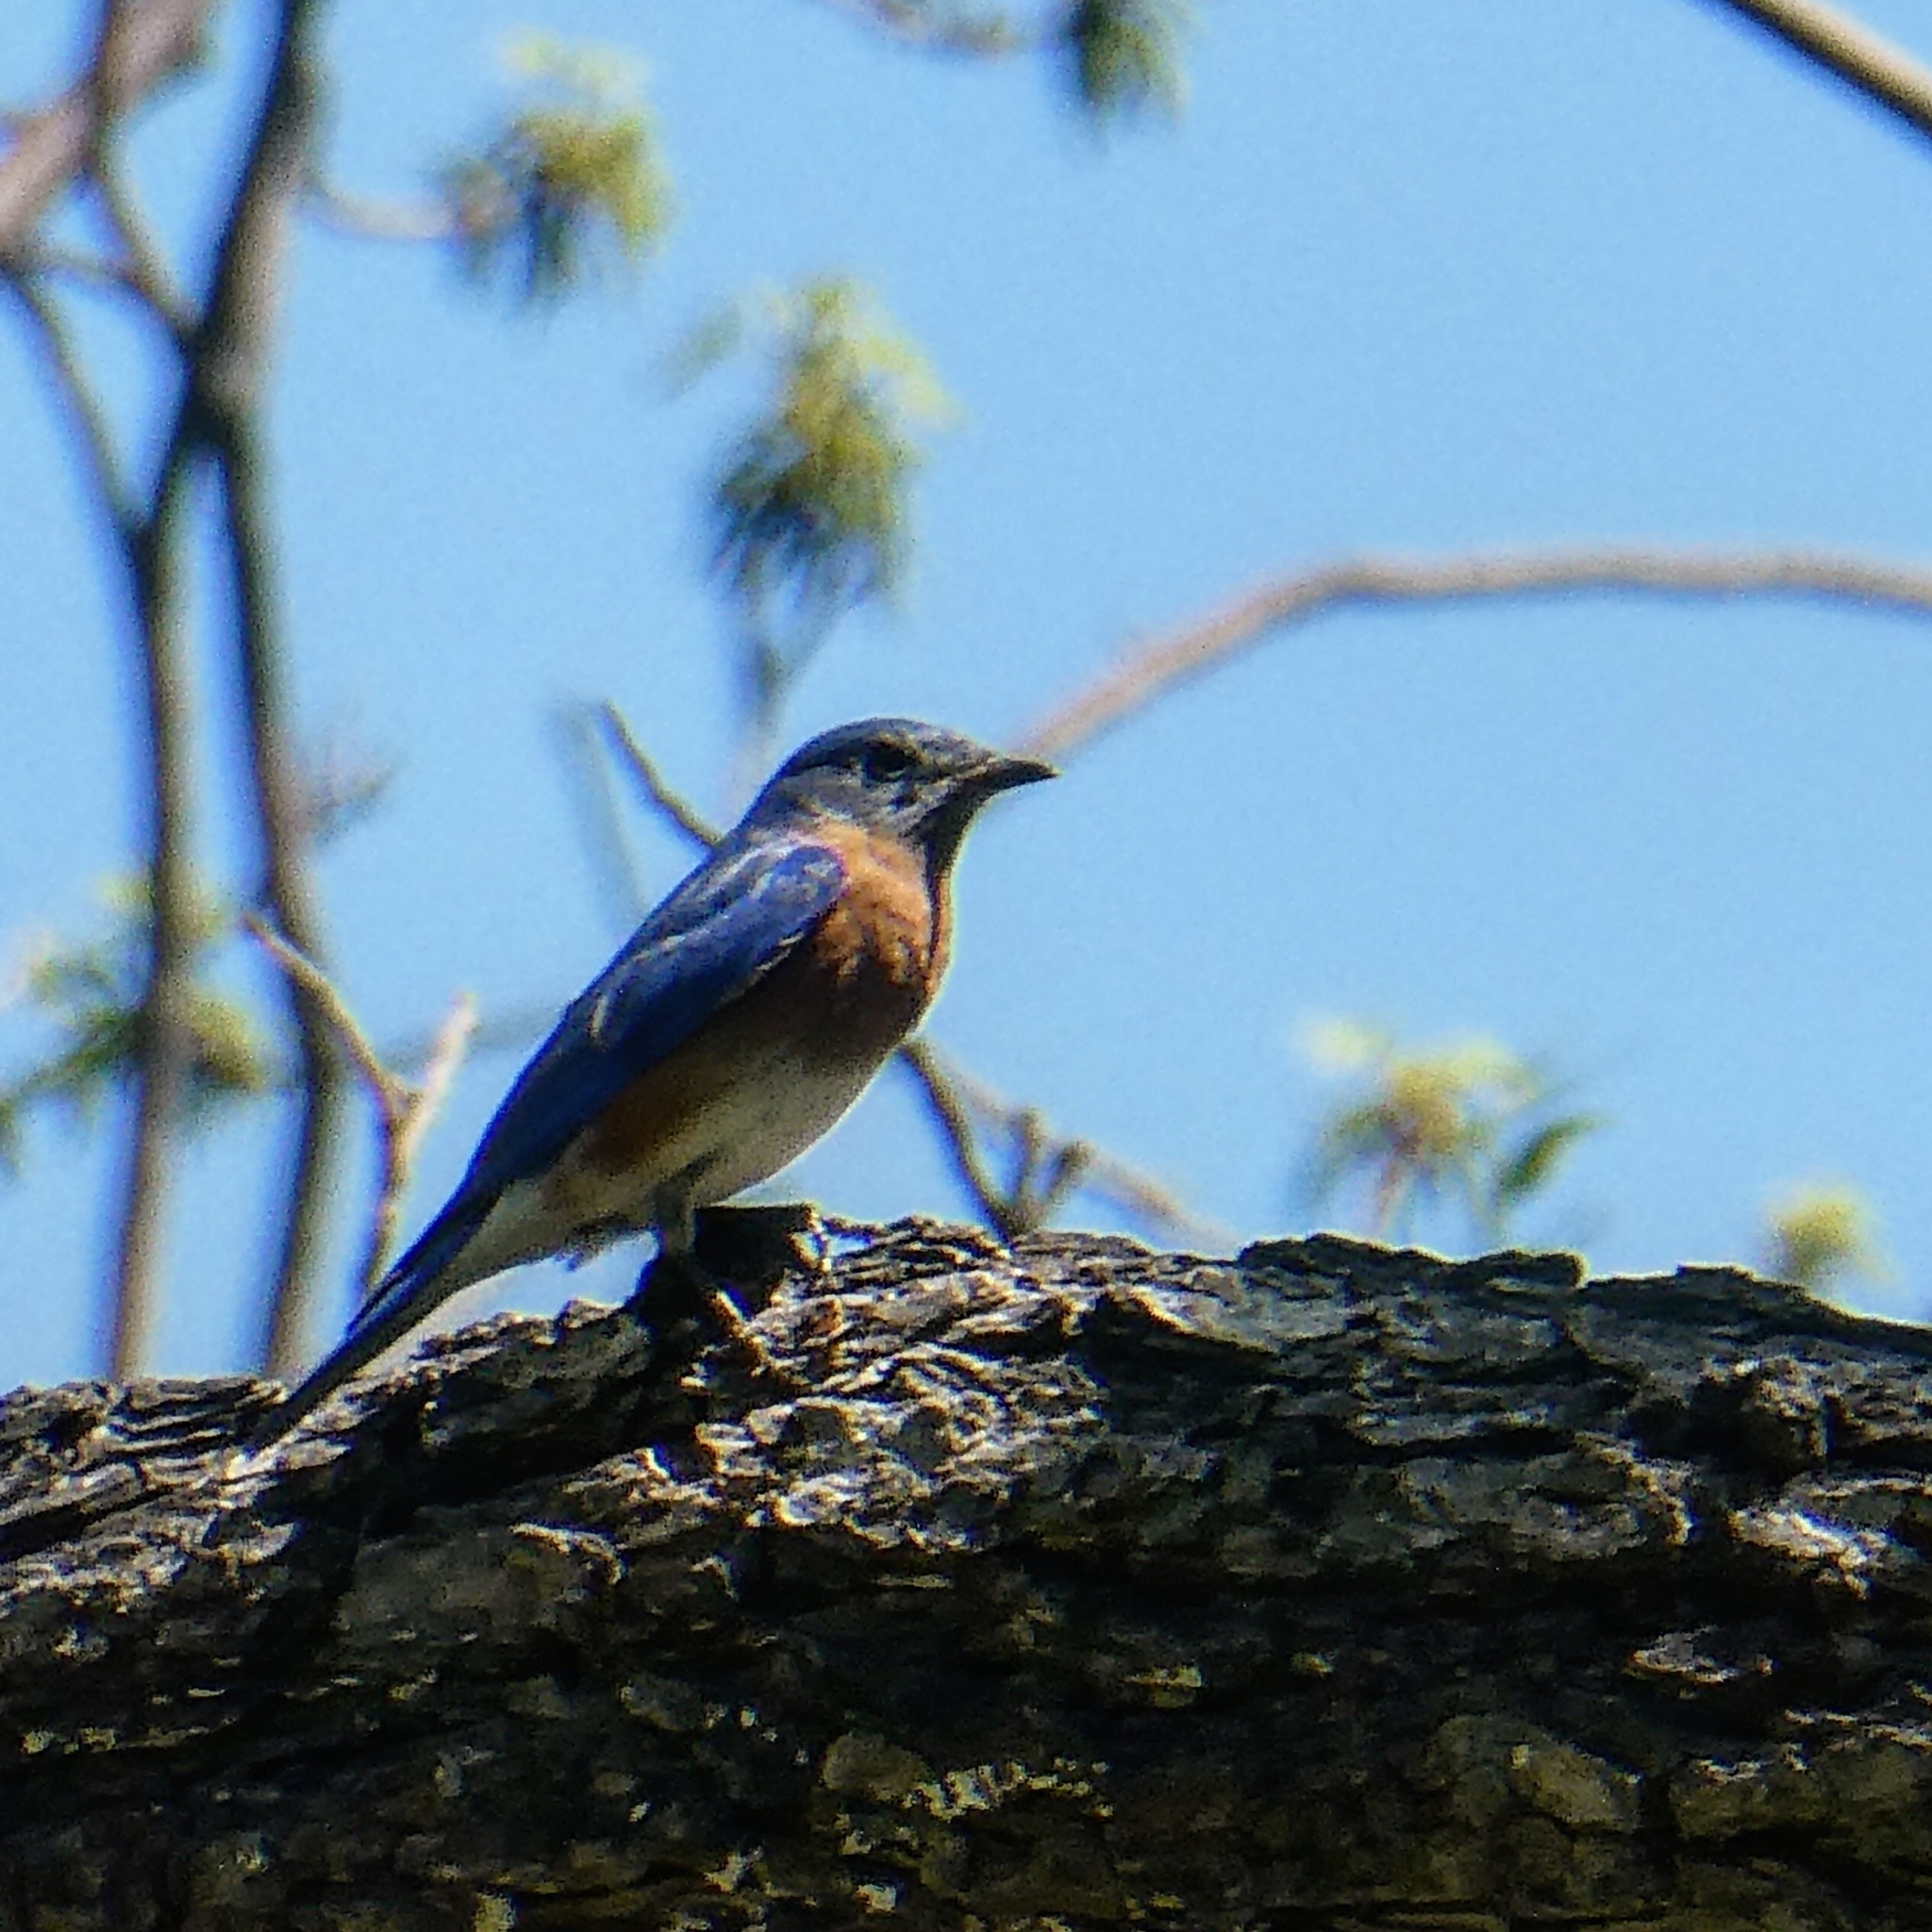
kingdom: Animalia
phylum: Chordata
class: Aves
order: Passeriformes
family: Turdidae
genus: Sialia
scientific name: Sialia sialis
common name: Eastern bluebird
